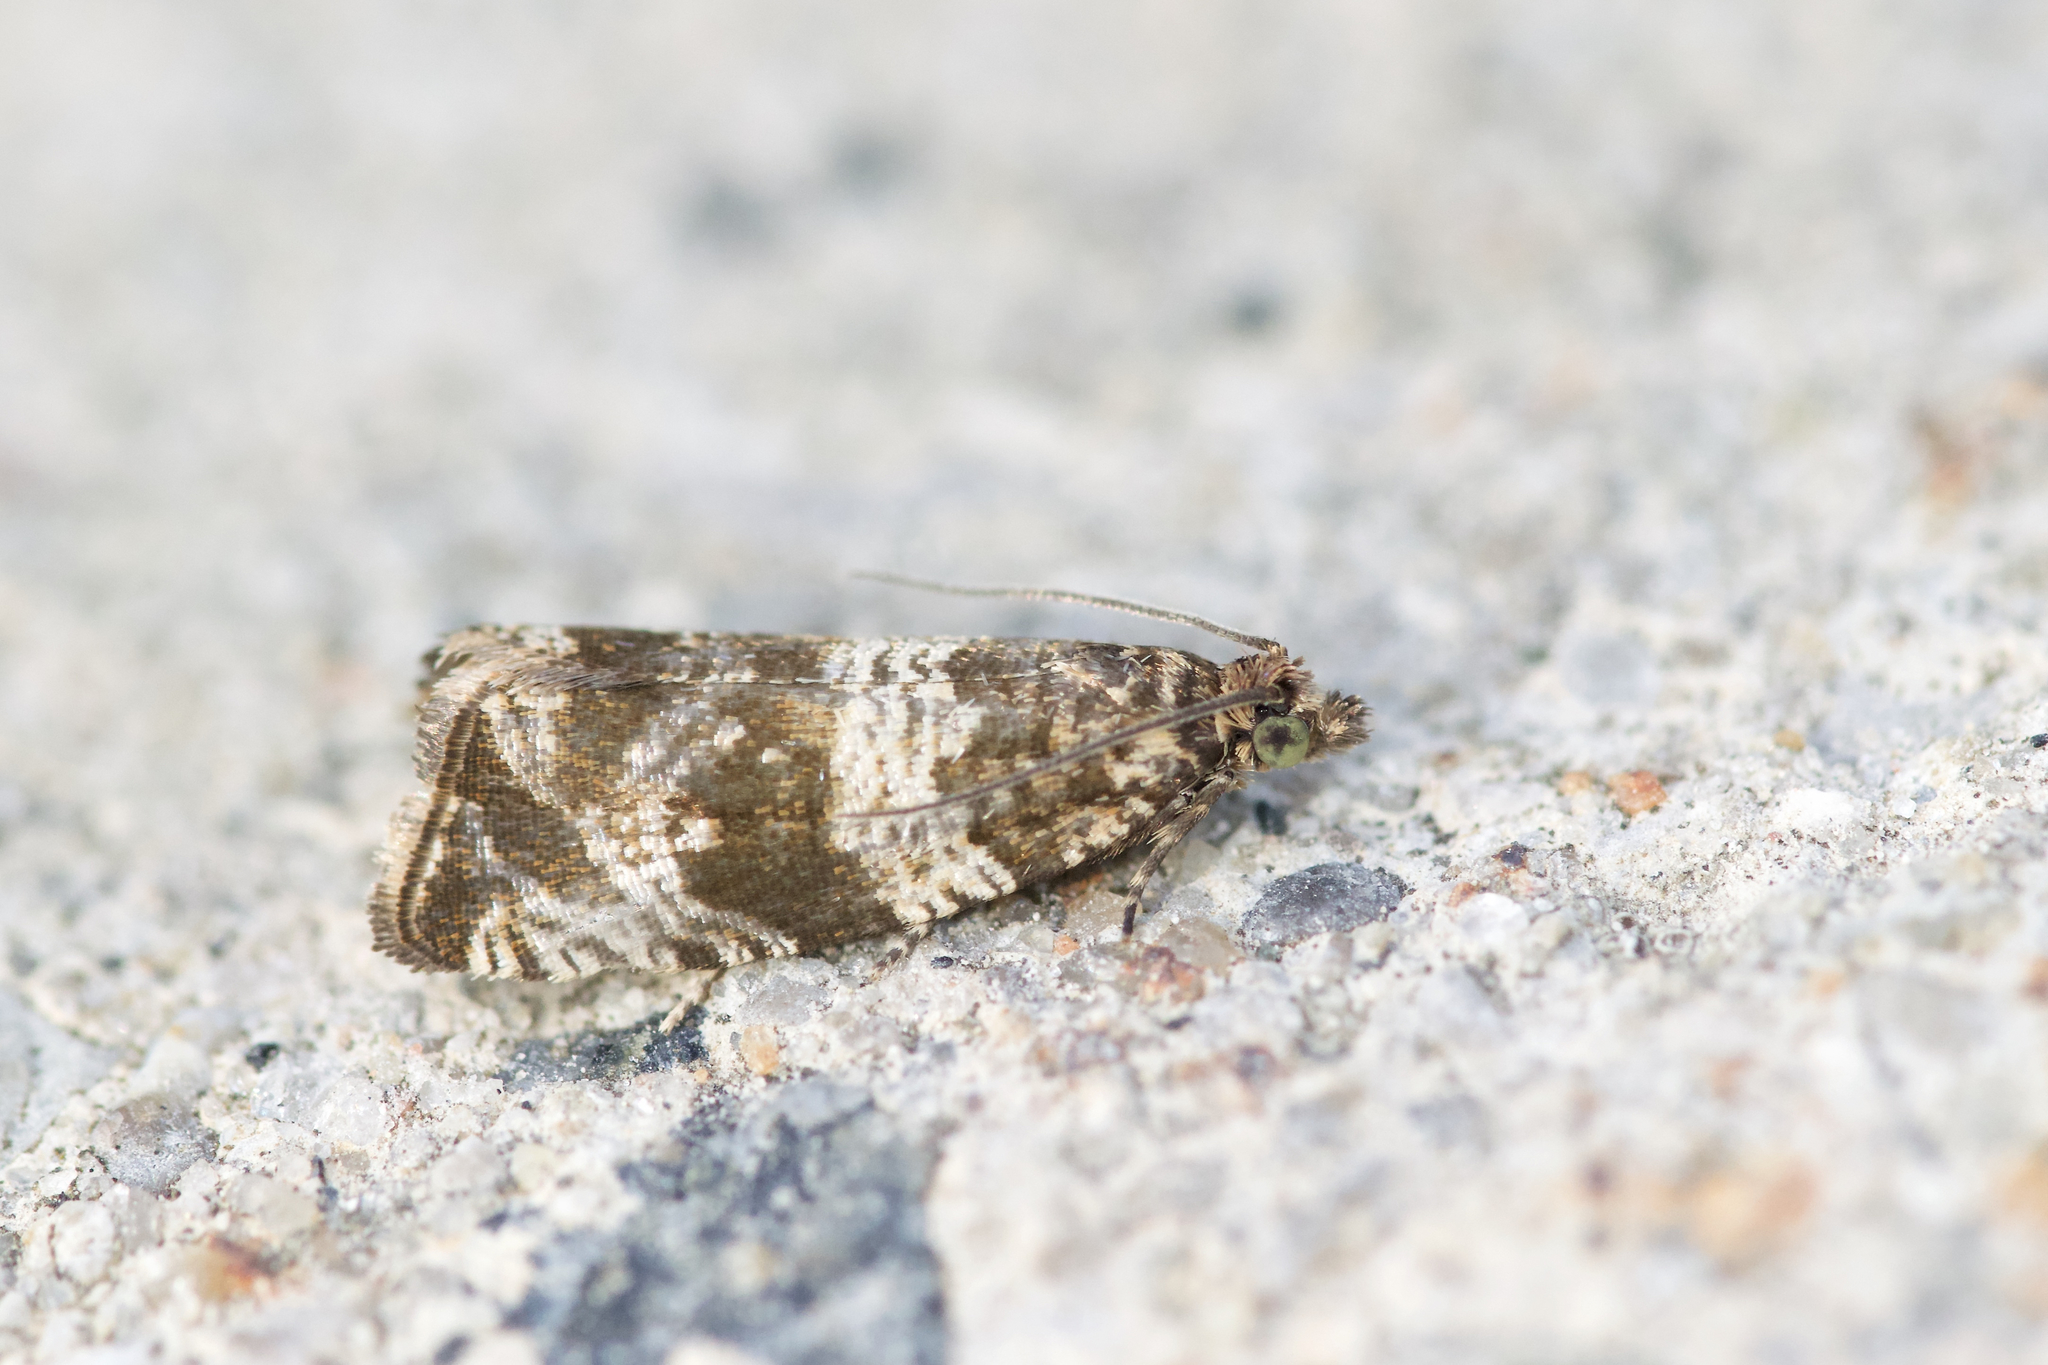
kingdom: Animalia
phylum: Arthropoda
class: Insecta
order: Lepidoptera
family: Tortricidae
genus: Celypha
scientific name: Celypha cespitana
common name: Thyme marble
